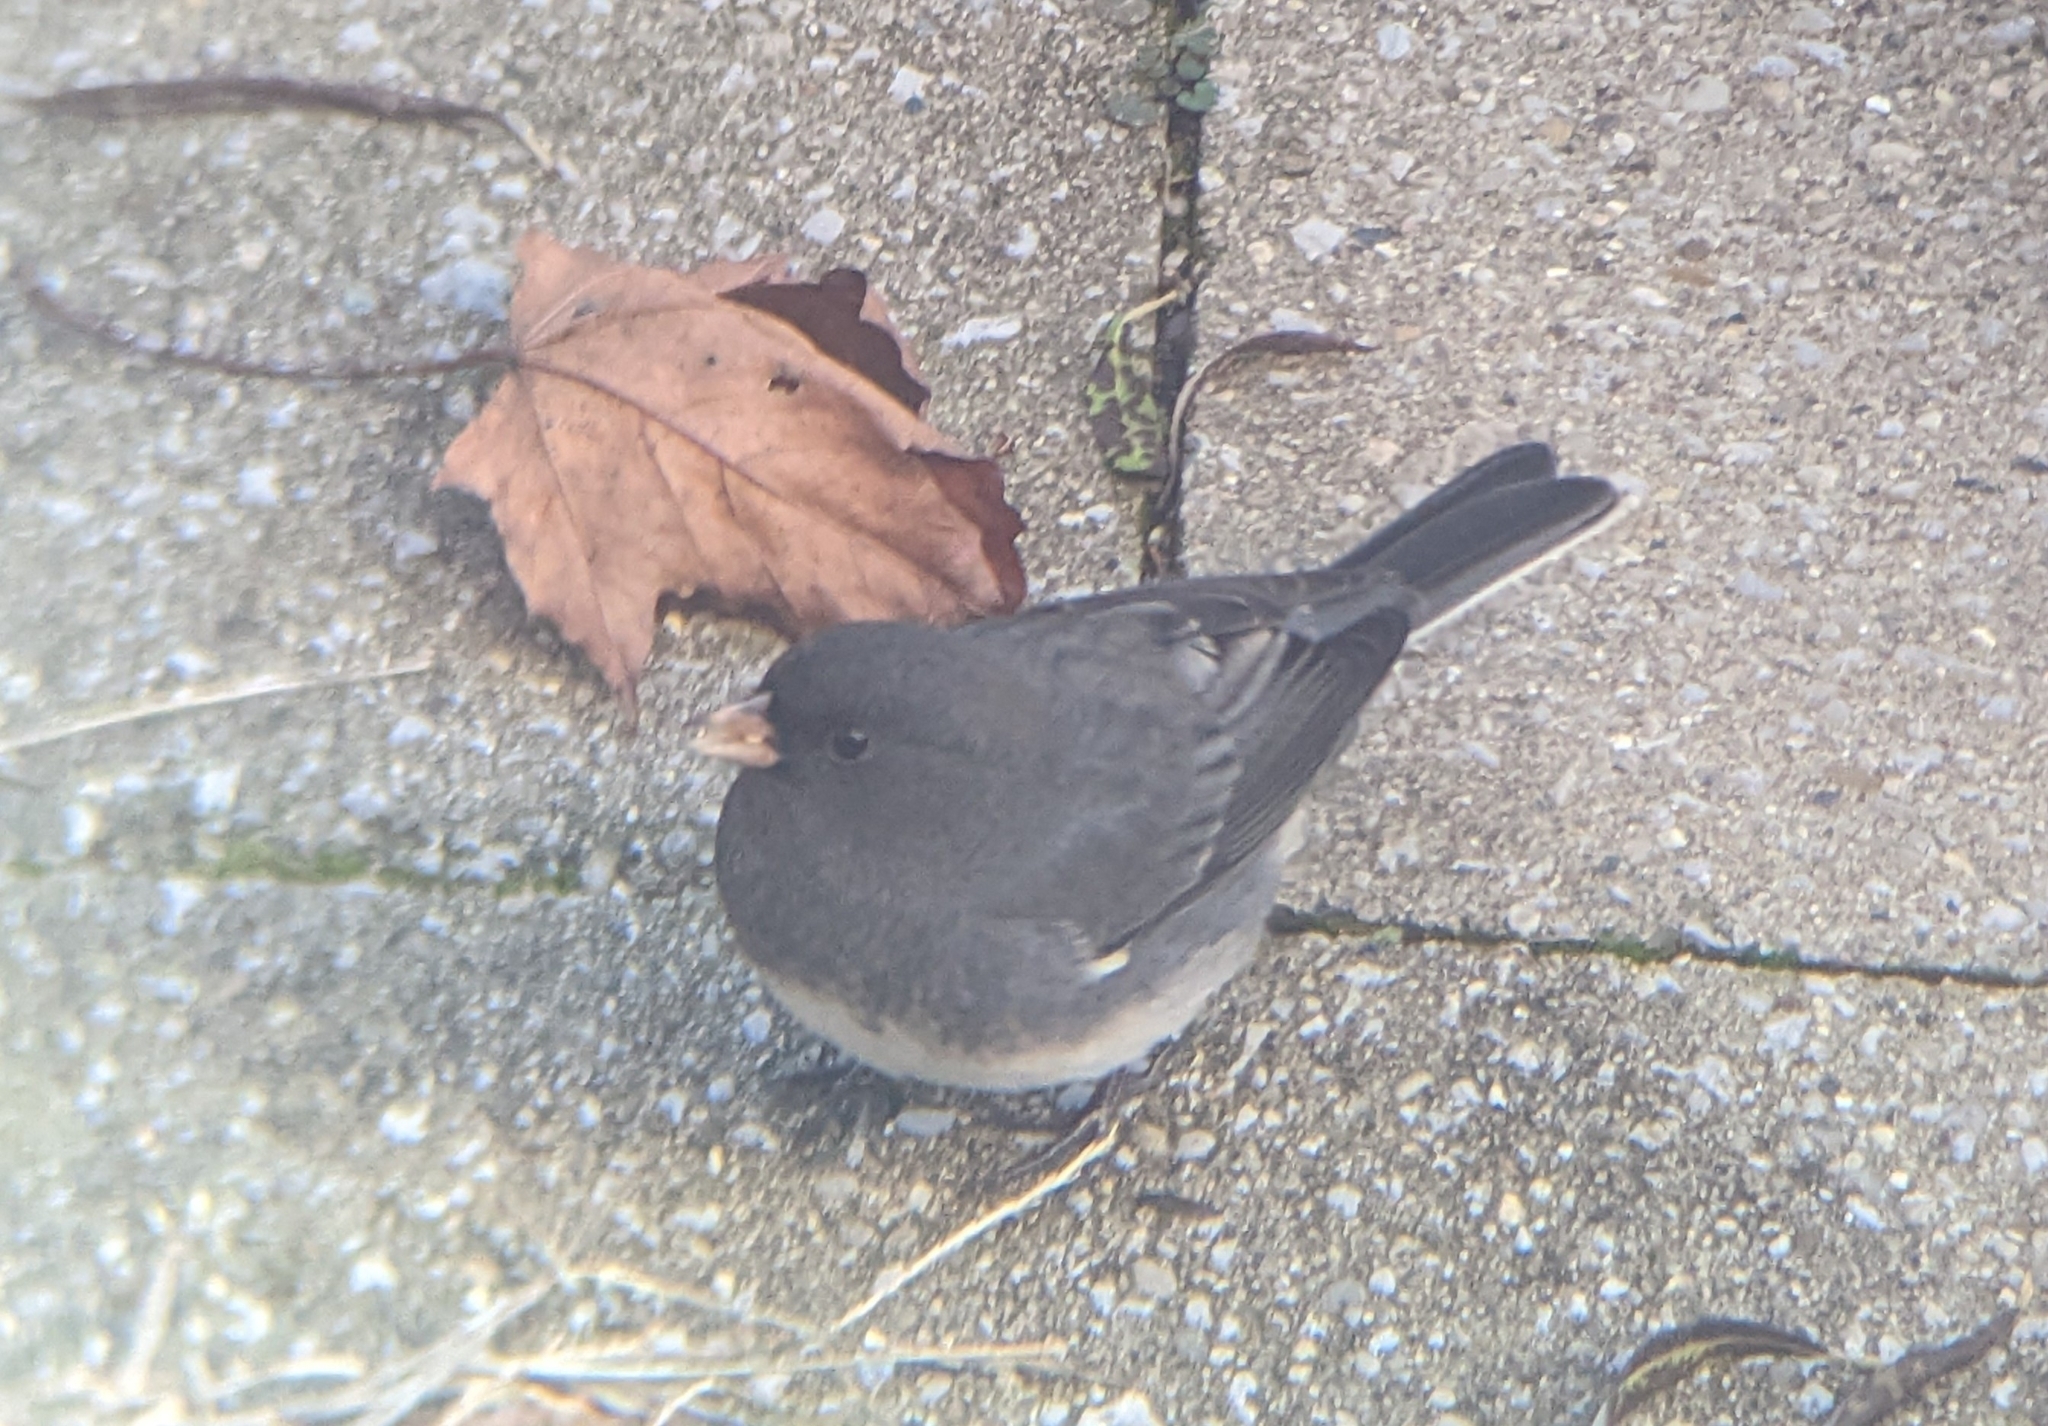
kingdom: Animalia
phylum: Chordata
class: Aves
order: Passeriformes
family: Passerellidae
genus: Junco
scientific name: Junco hyemalis
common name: Dark-eyed junco
